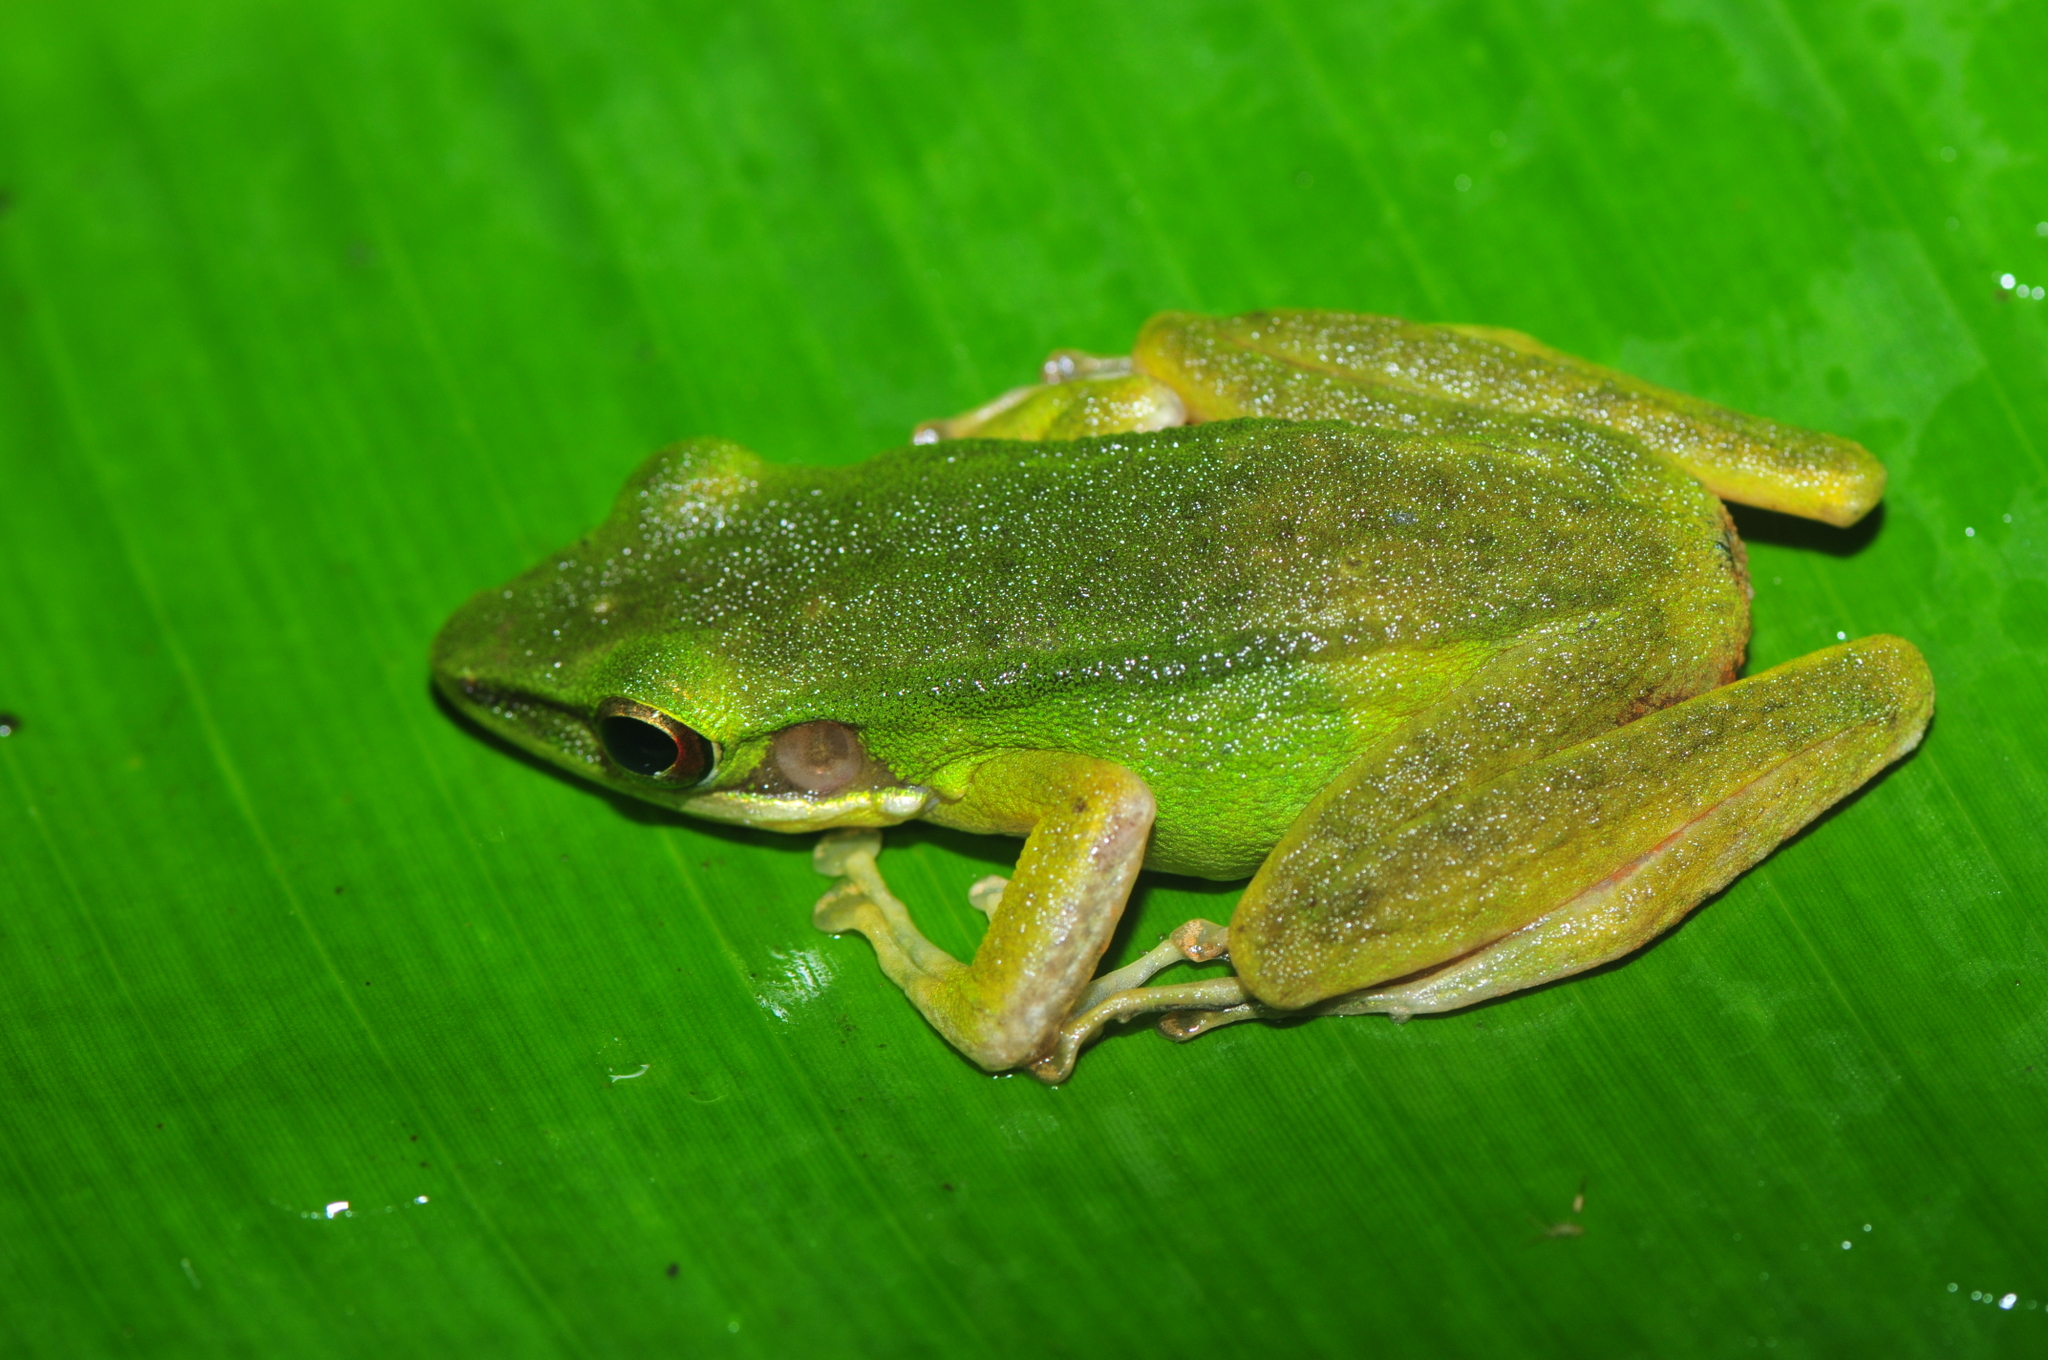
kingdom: Animalia
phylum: Chordata
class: Amphibia
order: Anura
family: Ranidae
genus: Chalcorana
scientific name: Chalcorana parvaccola
